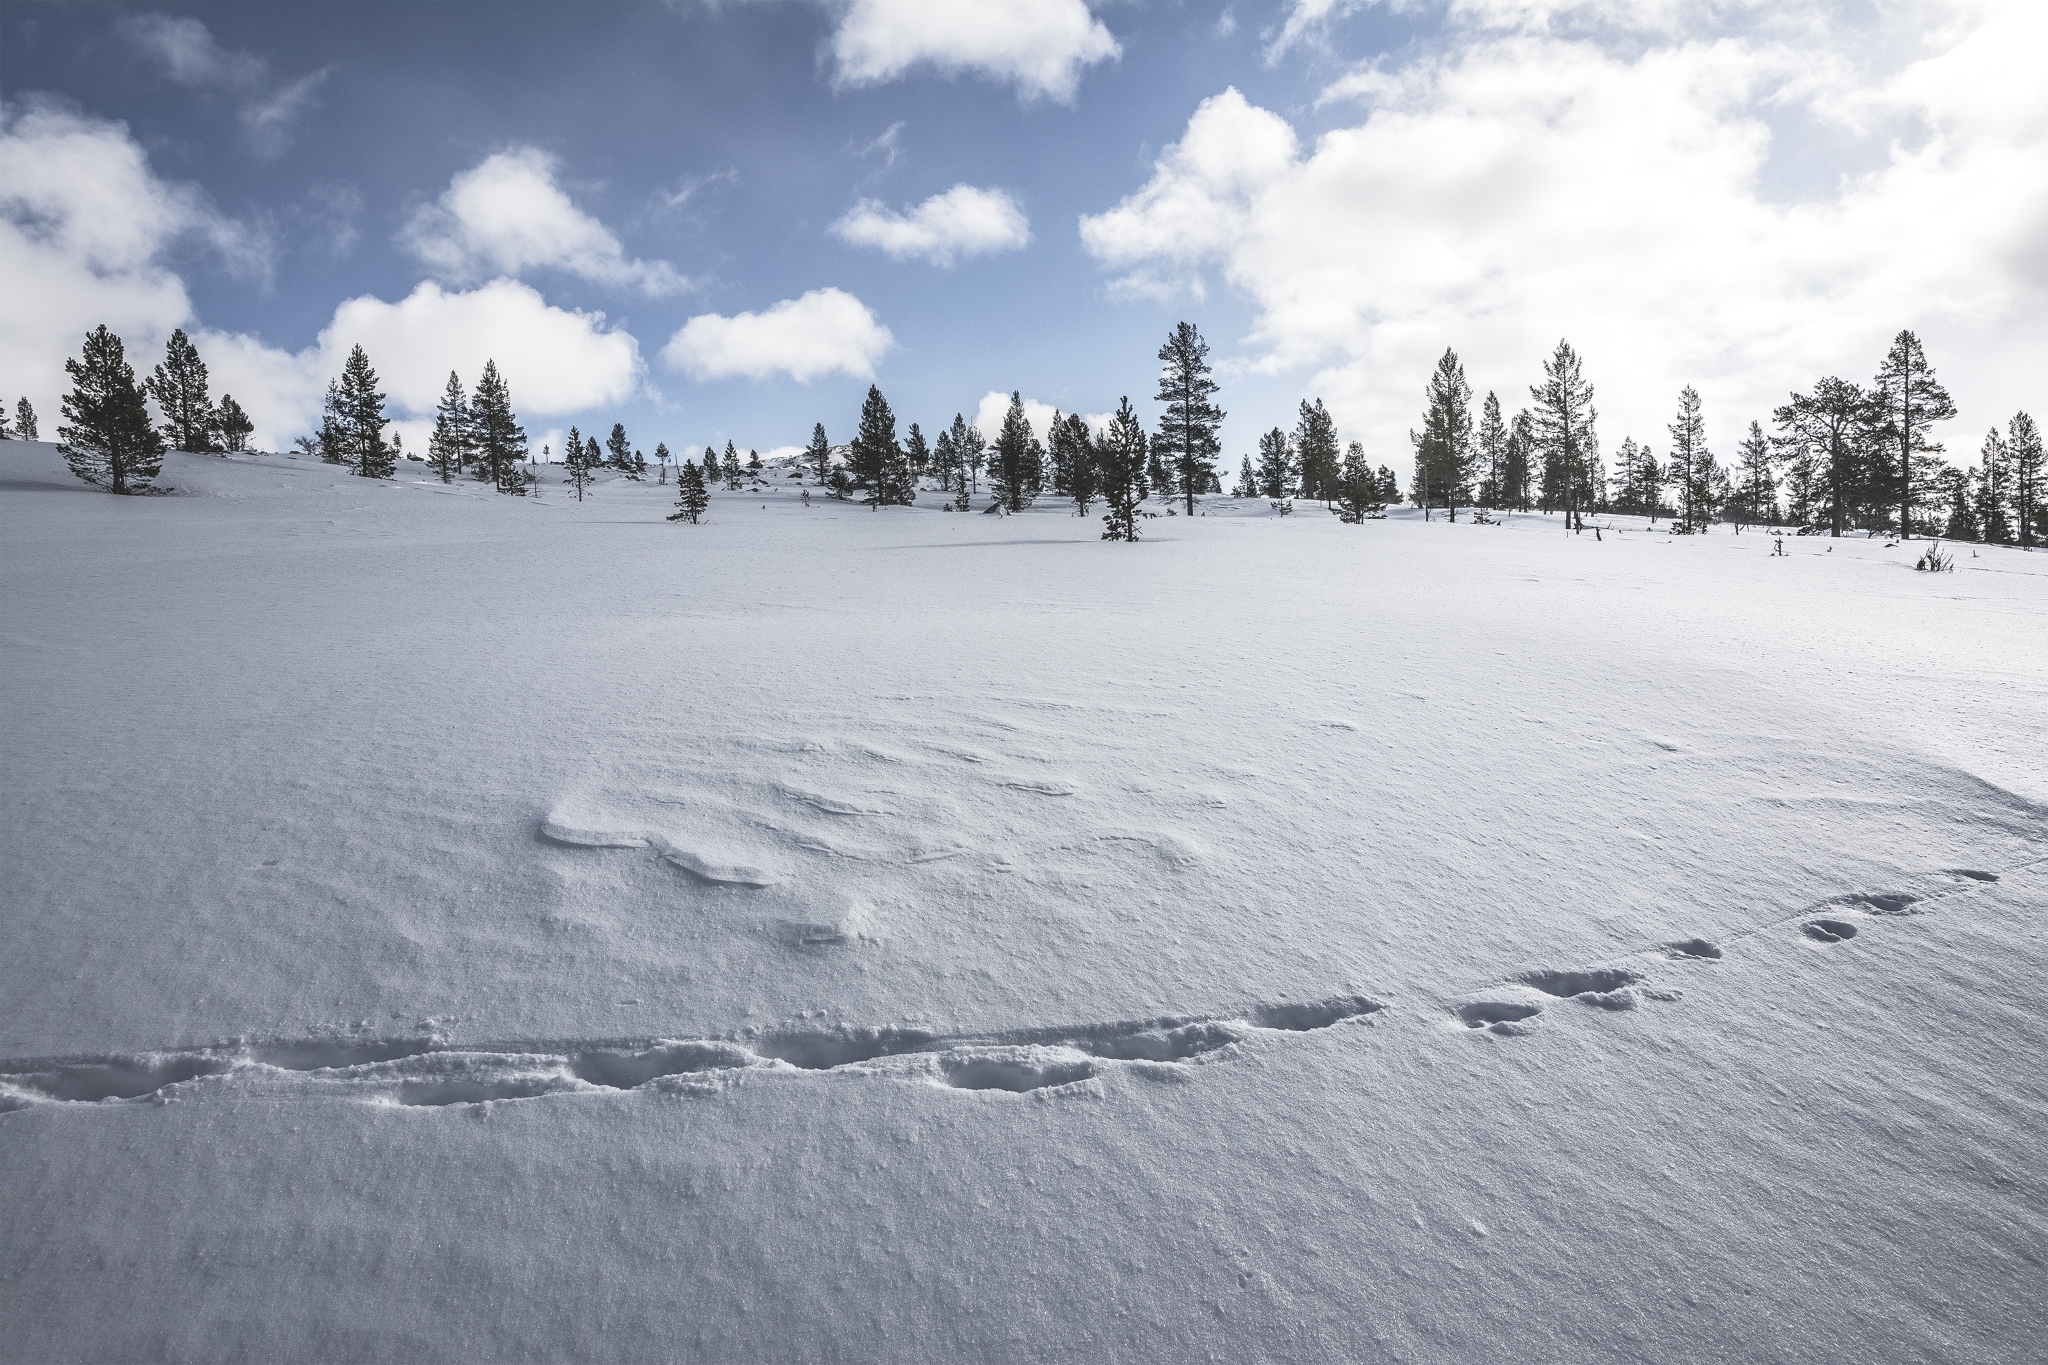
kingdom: Animalia
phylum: Chordata
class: Mammalia
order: Carnivora
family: Mustelidae
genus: Gulo
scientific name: Gulo gulo
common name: Wolverine
